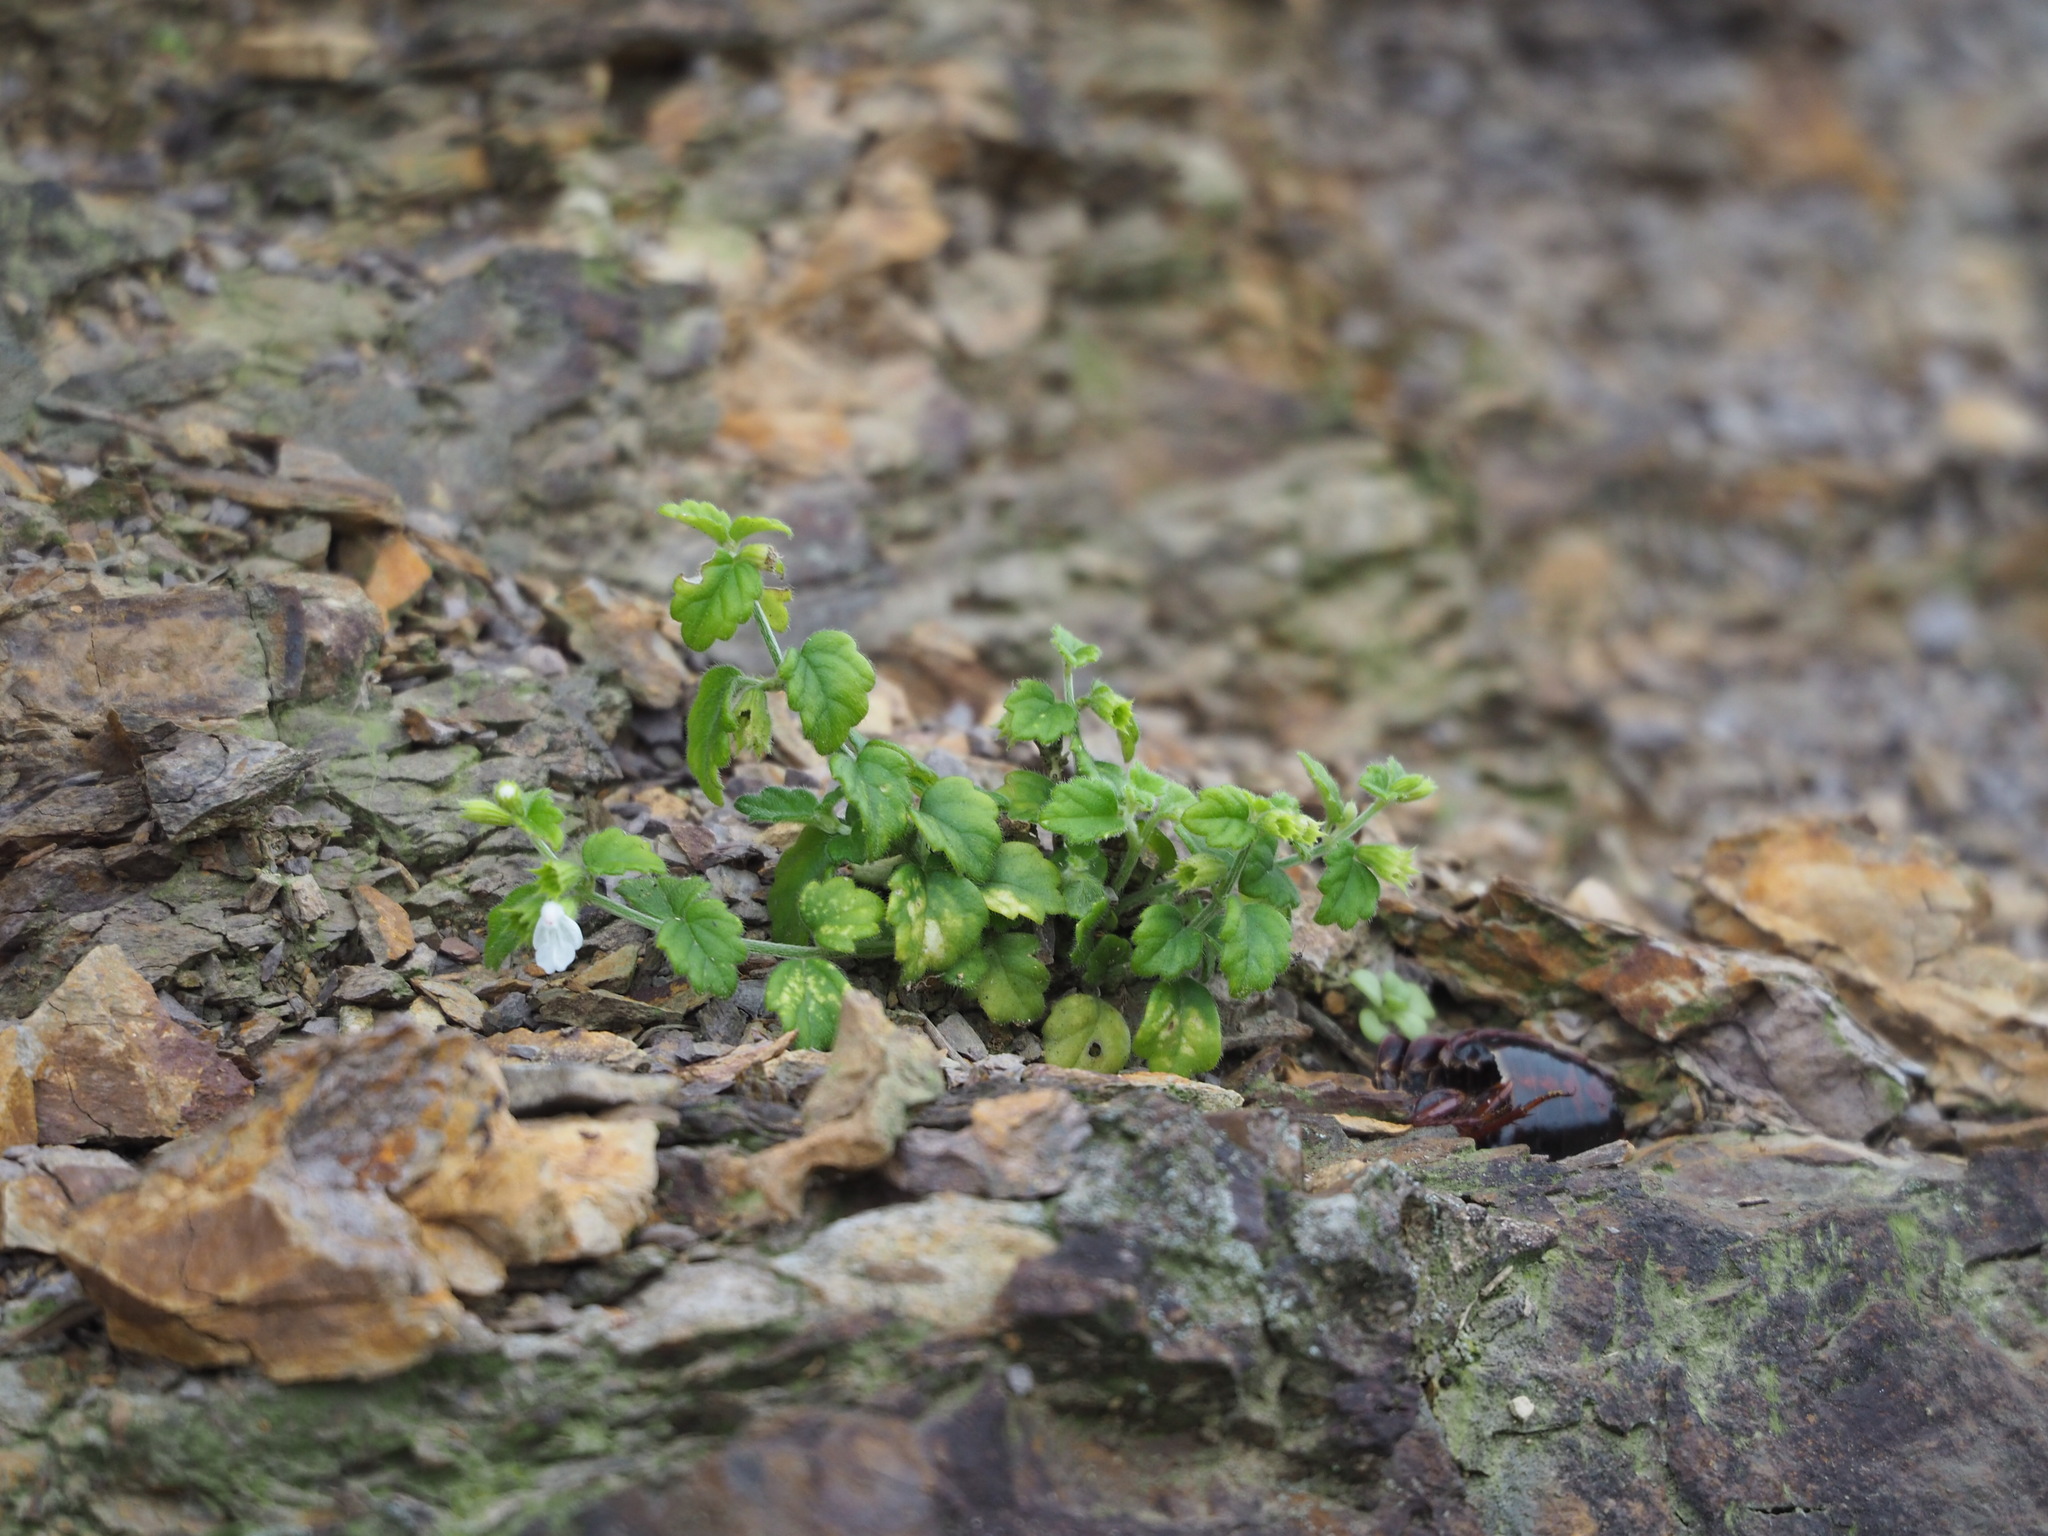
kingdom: Plantae
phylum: Tracheophyta
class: Magnoliopsida
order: Lamiales
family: Lamiaceae
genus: Leucas
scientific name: Leucas chinensis
